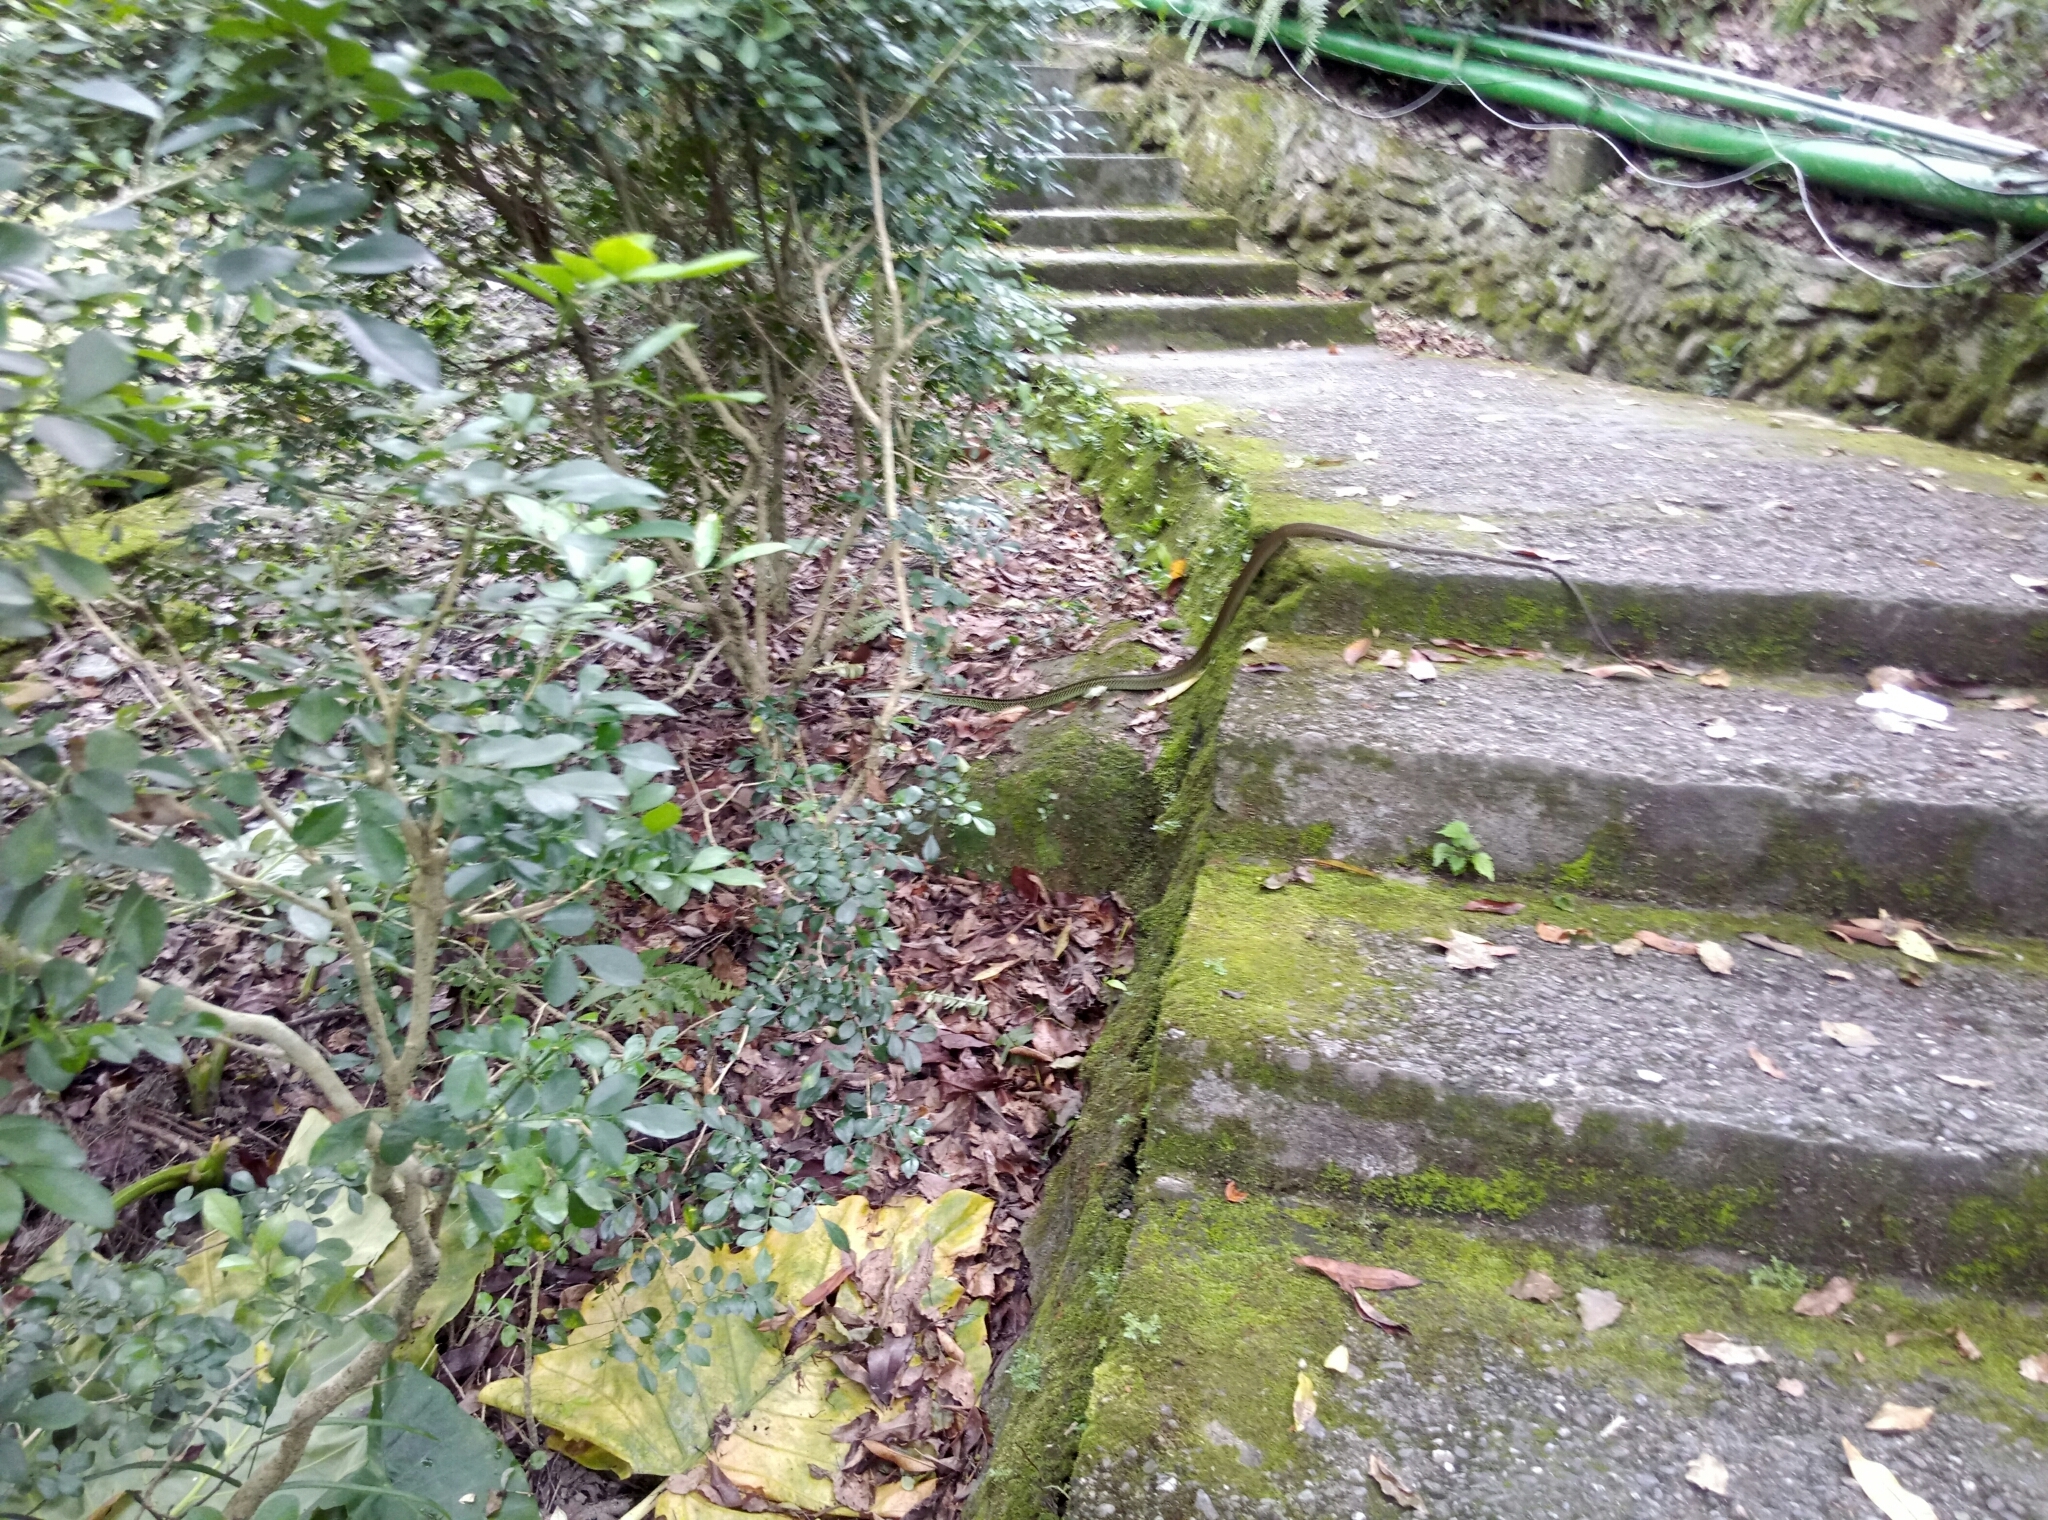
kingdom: Animalia
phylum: Chordata
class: Squamata
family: Colubridae
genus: Ptyas
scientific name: Ptyas dhumnades
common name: Black-striped rat snake
